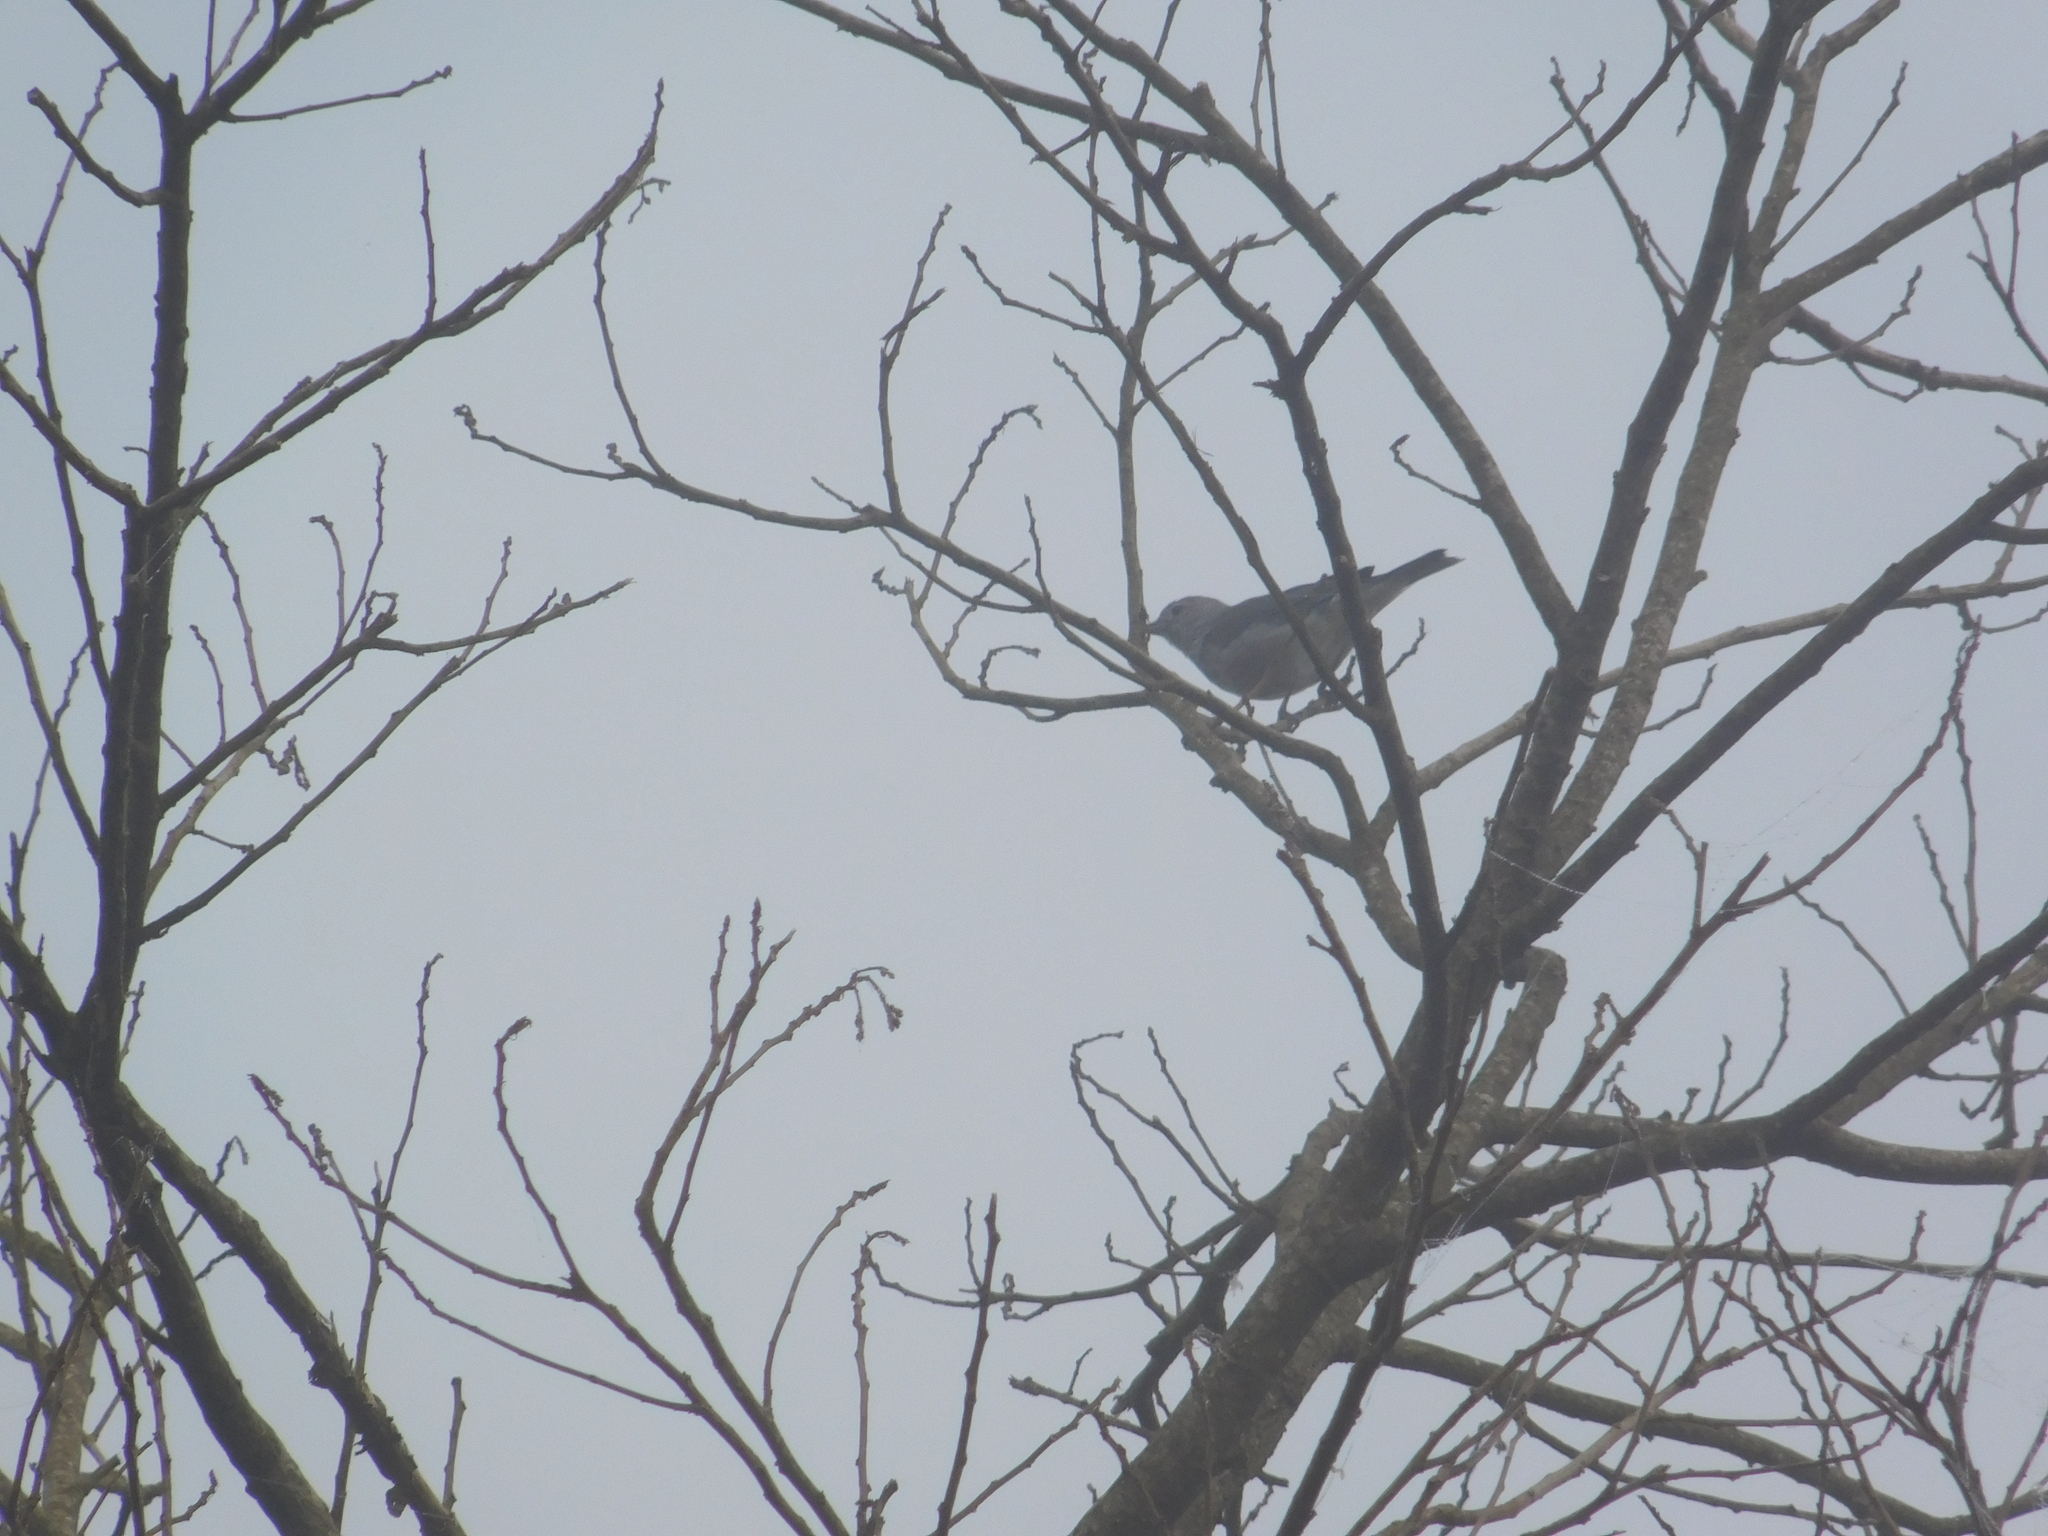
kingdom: Animalia
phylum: Chordata
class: Aves
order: Passeriformes
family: Thraupidae
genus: Thraupis
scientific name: Thraupis sayaca
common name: Sayaca tanager
